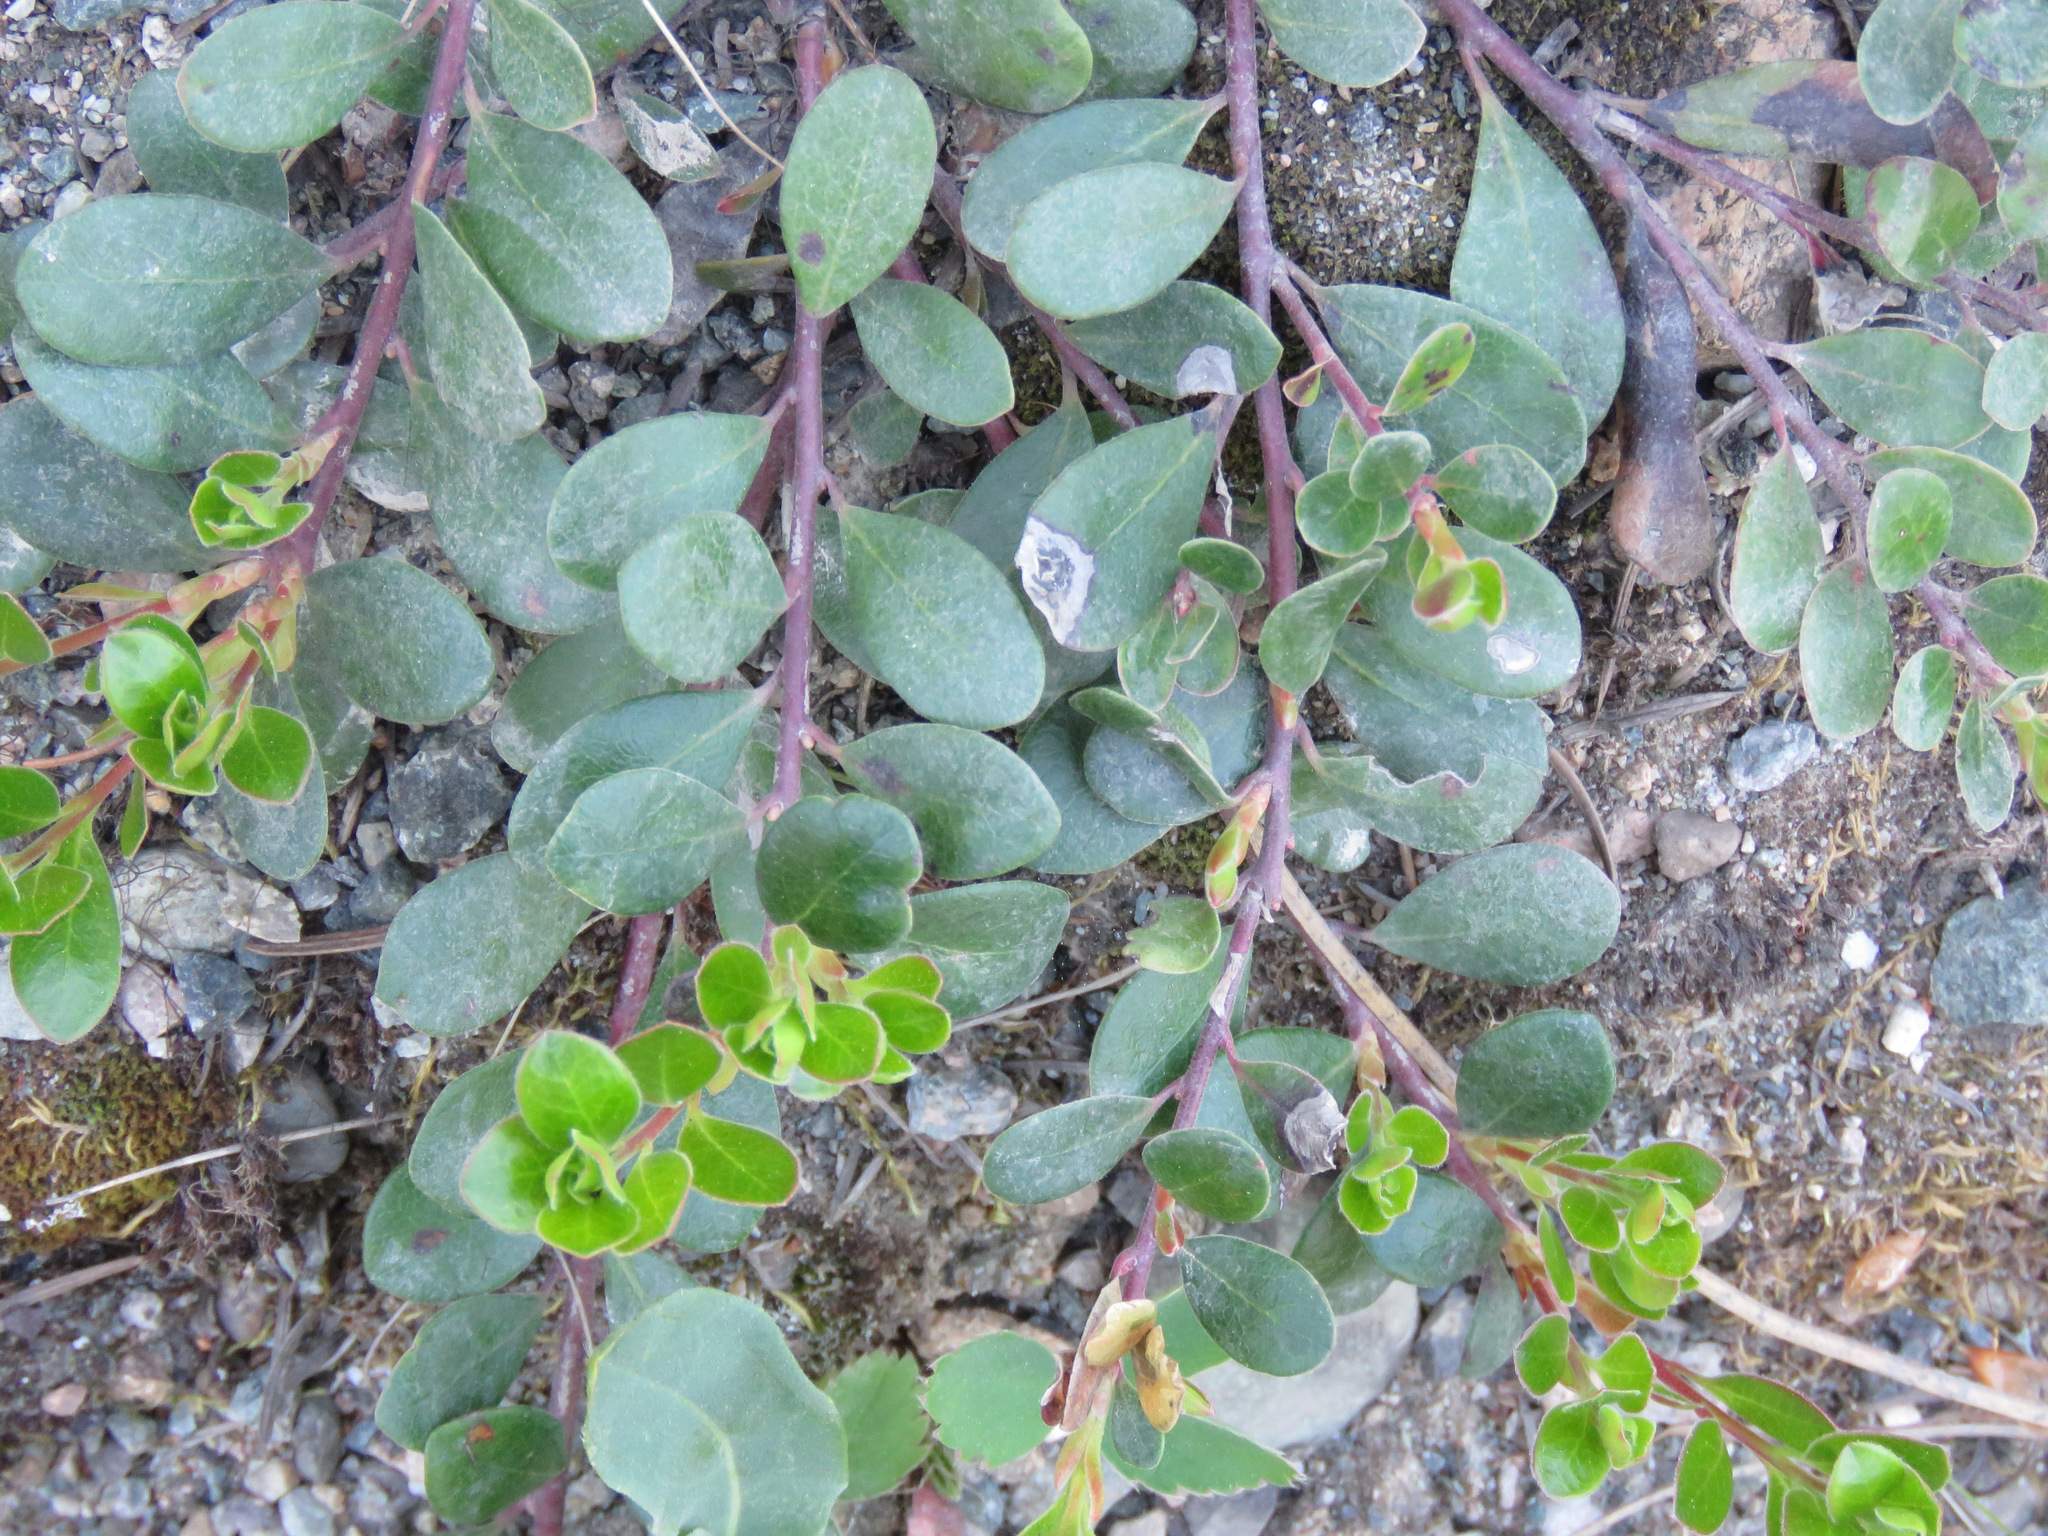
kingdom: Plantae
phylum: Tracheophyta
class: Magnoliopsida
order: Ericales
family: Ericaceae
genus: Arctostaphylos
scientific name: Arctostaphylos uva-ursi
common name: Bearberry
